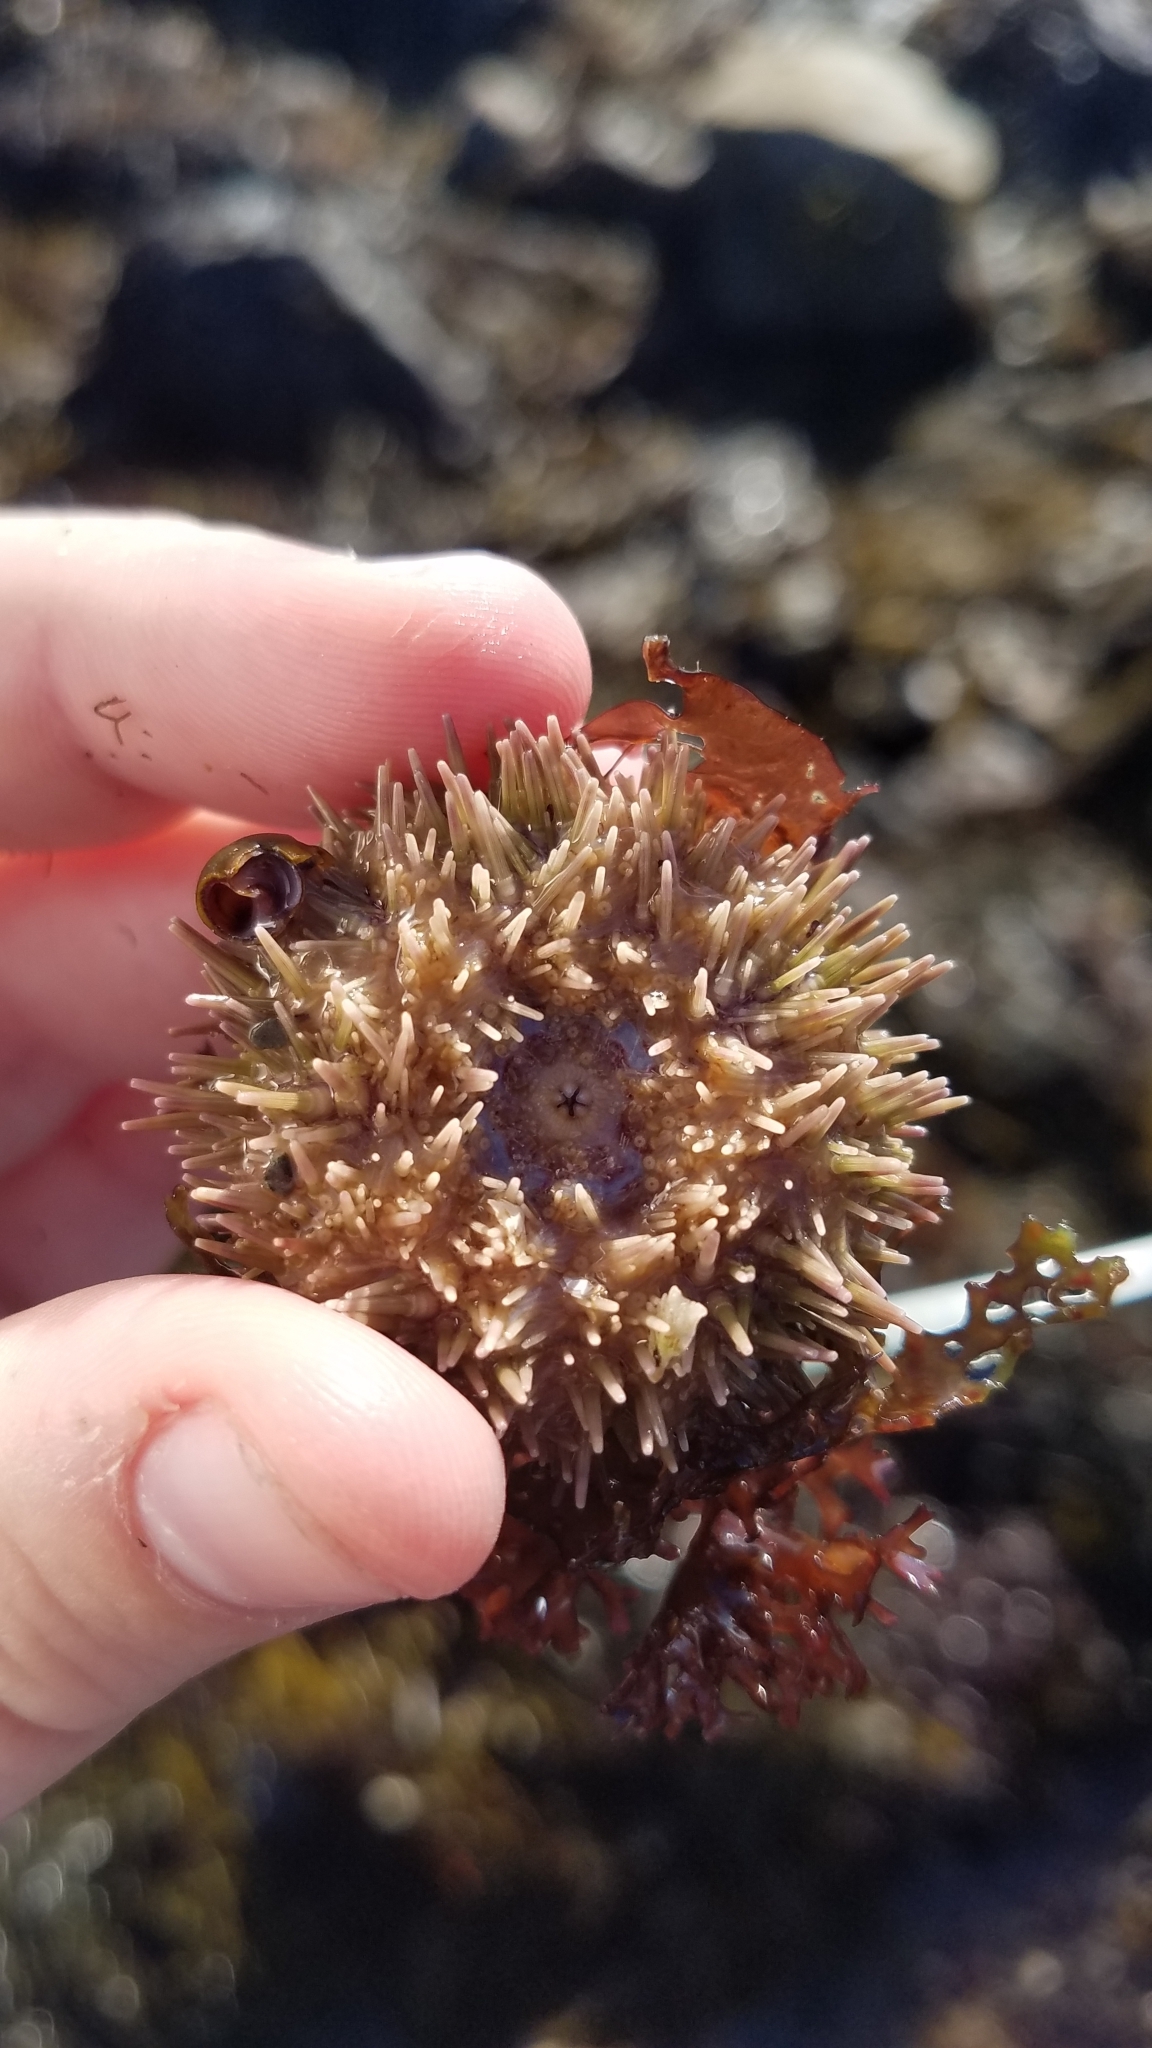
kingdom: Animalia
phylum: Echinodermata
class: Echinoidea
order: Camarodonta
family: Strongylocentrotidae
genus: Strongylocentrotus
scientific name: Strongylocentrotus droebachiensis
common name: Northern sea urchin
